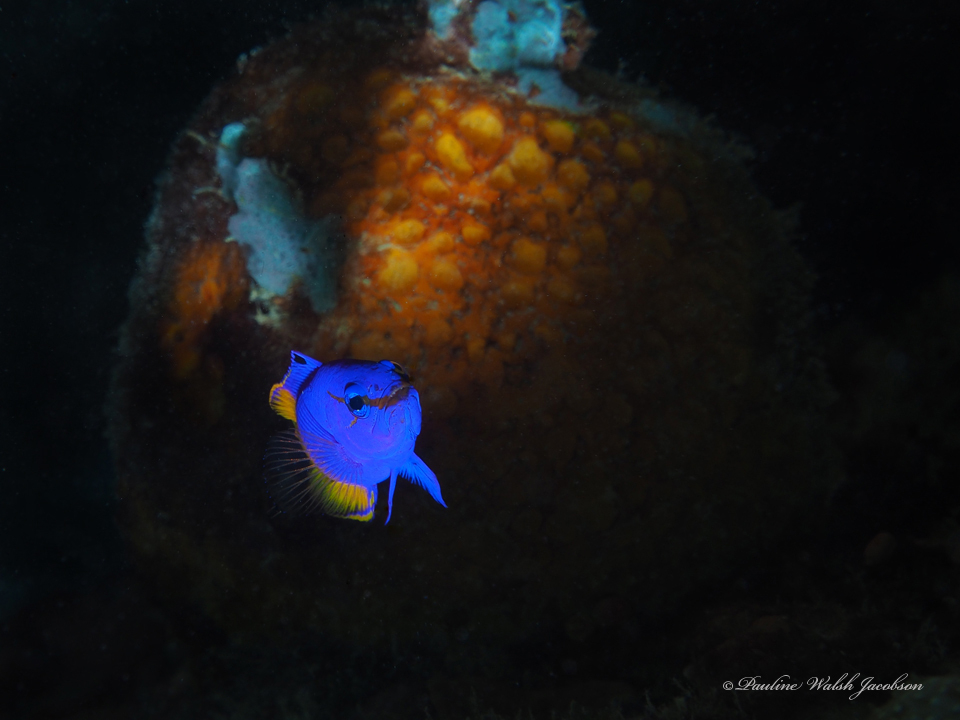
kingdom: Animalia
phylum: Chordata
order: Perciformes
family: Grammatidae
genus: Gramma
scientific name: Gramma loreto
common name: Fairy basslet
